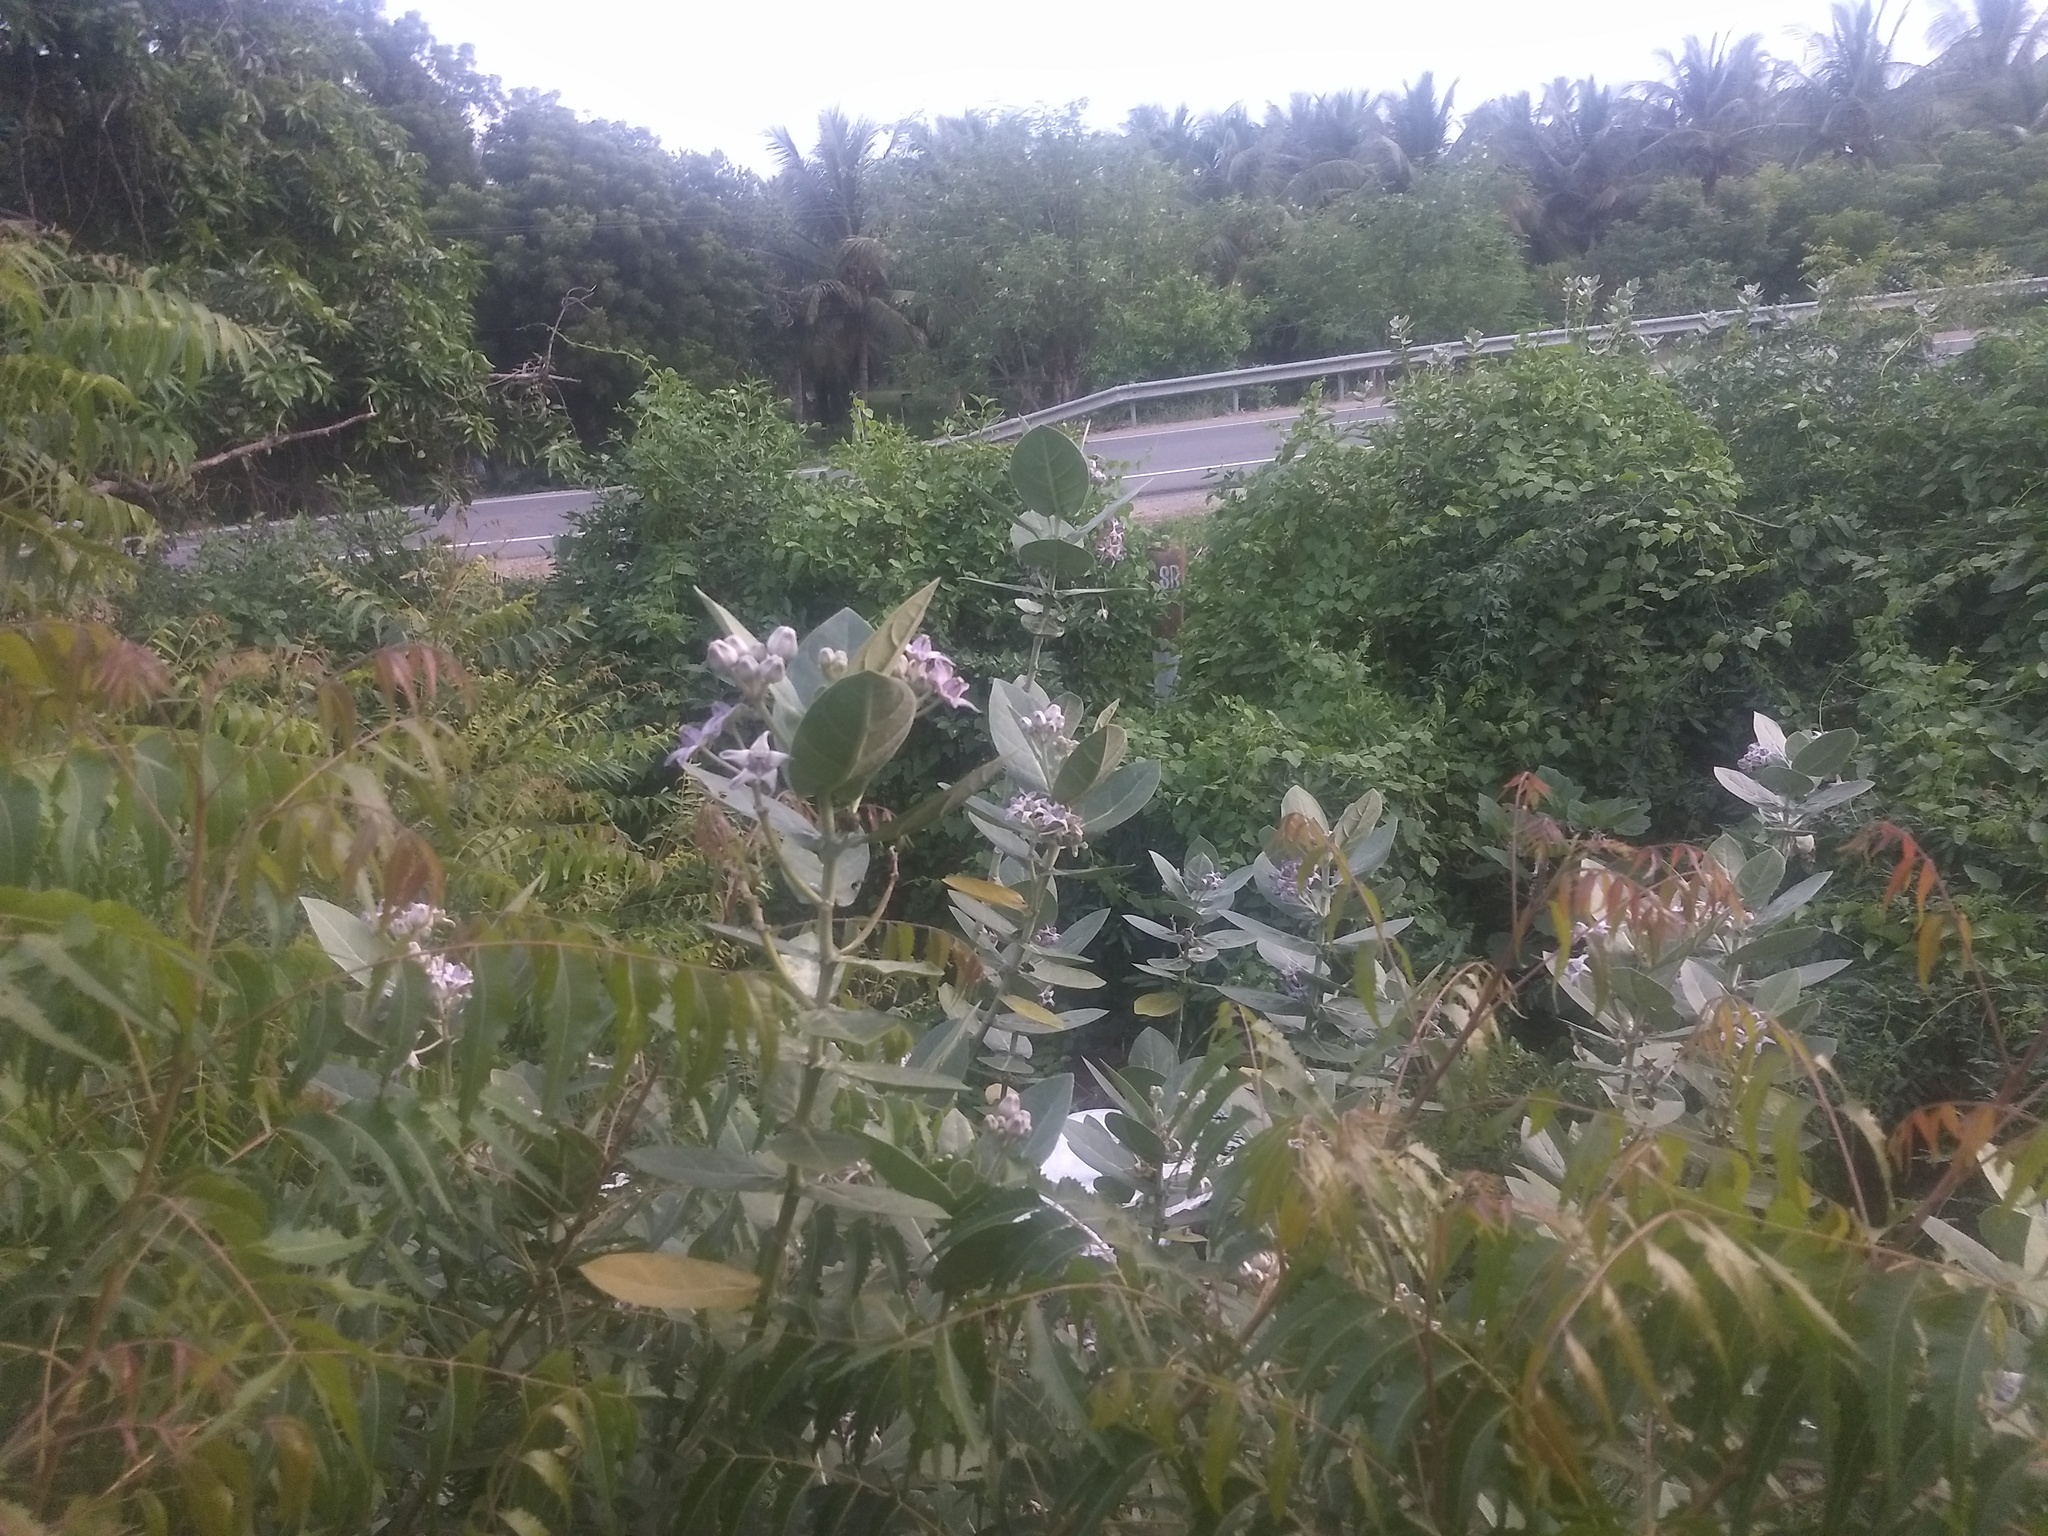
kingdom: Plantae
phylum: Tracheophyta
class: Magnoliopsida
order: Gentianales
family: Apocynaceae
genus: Calotropis
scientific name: Calotropis gigantea
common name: Crown flower
